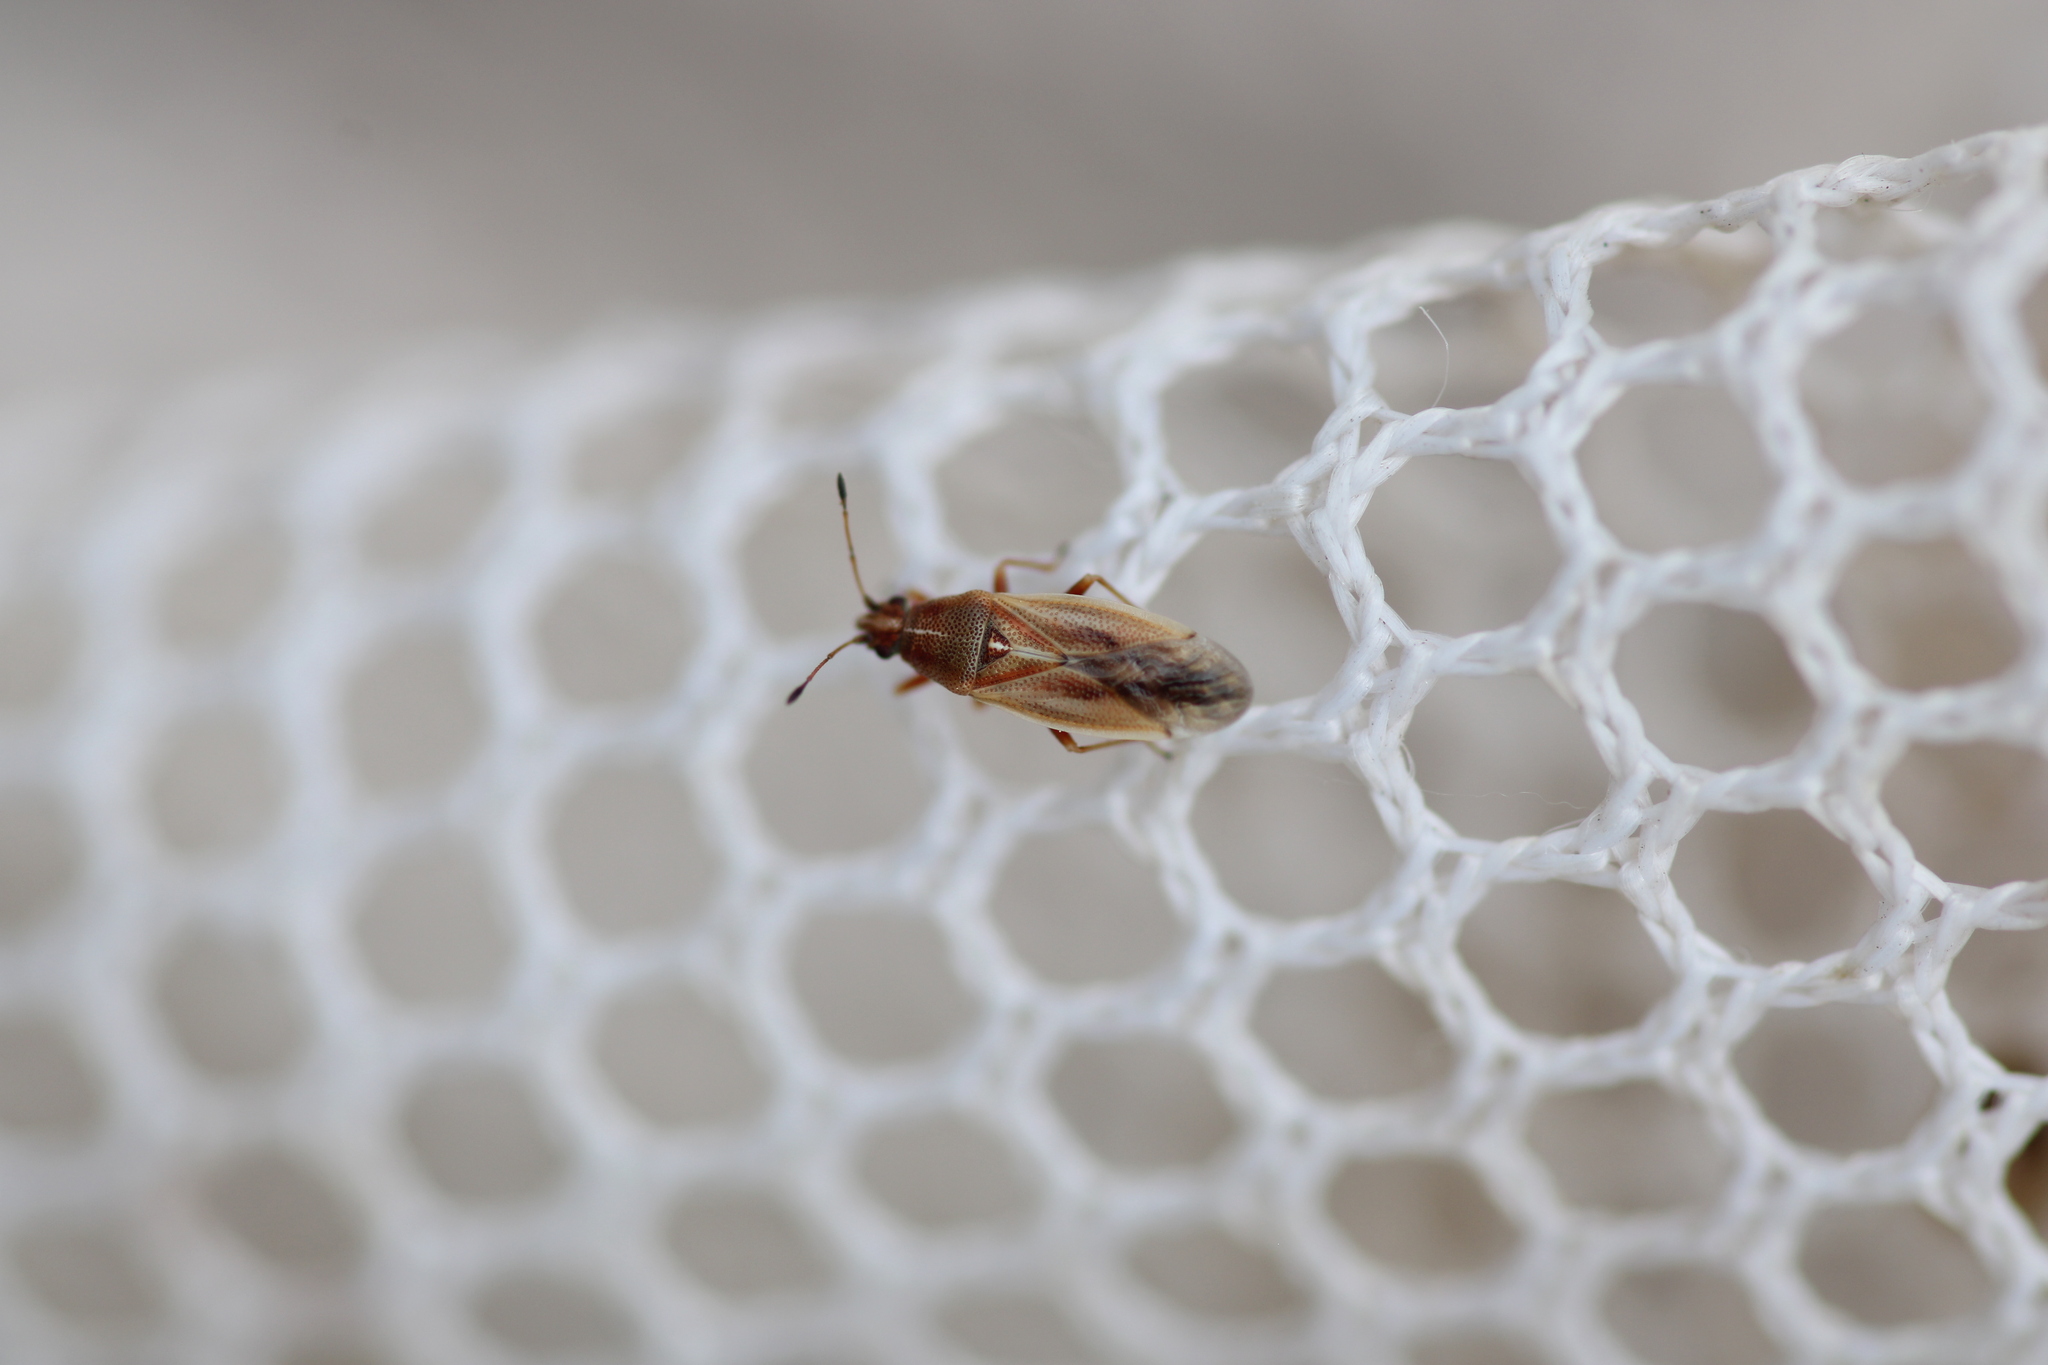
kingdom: Animalia
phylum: Arthropoda
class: Insecta
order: Hemiptera
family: Cymidae
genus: Cymus
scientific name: Cymus glandicolor
